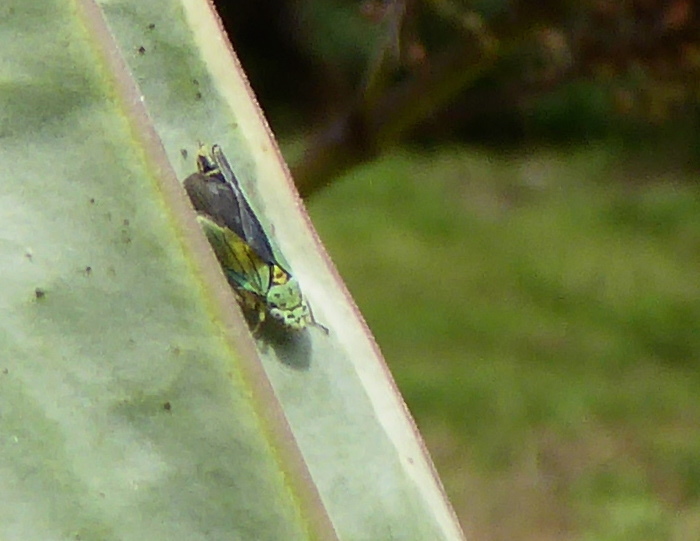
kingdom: Animalia
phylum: Arthropoda
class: Insecta
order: Hemiptera
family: Cicadellidae
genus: Graphocephala
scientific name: Graphocephala atropunctata
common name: Blue-green sharpshooter
